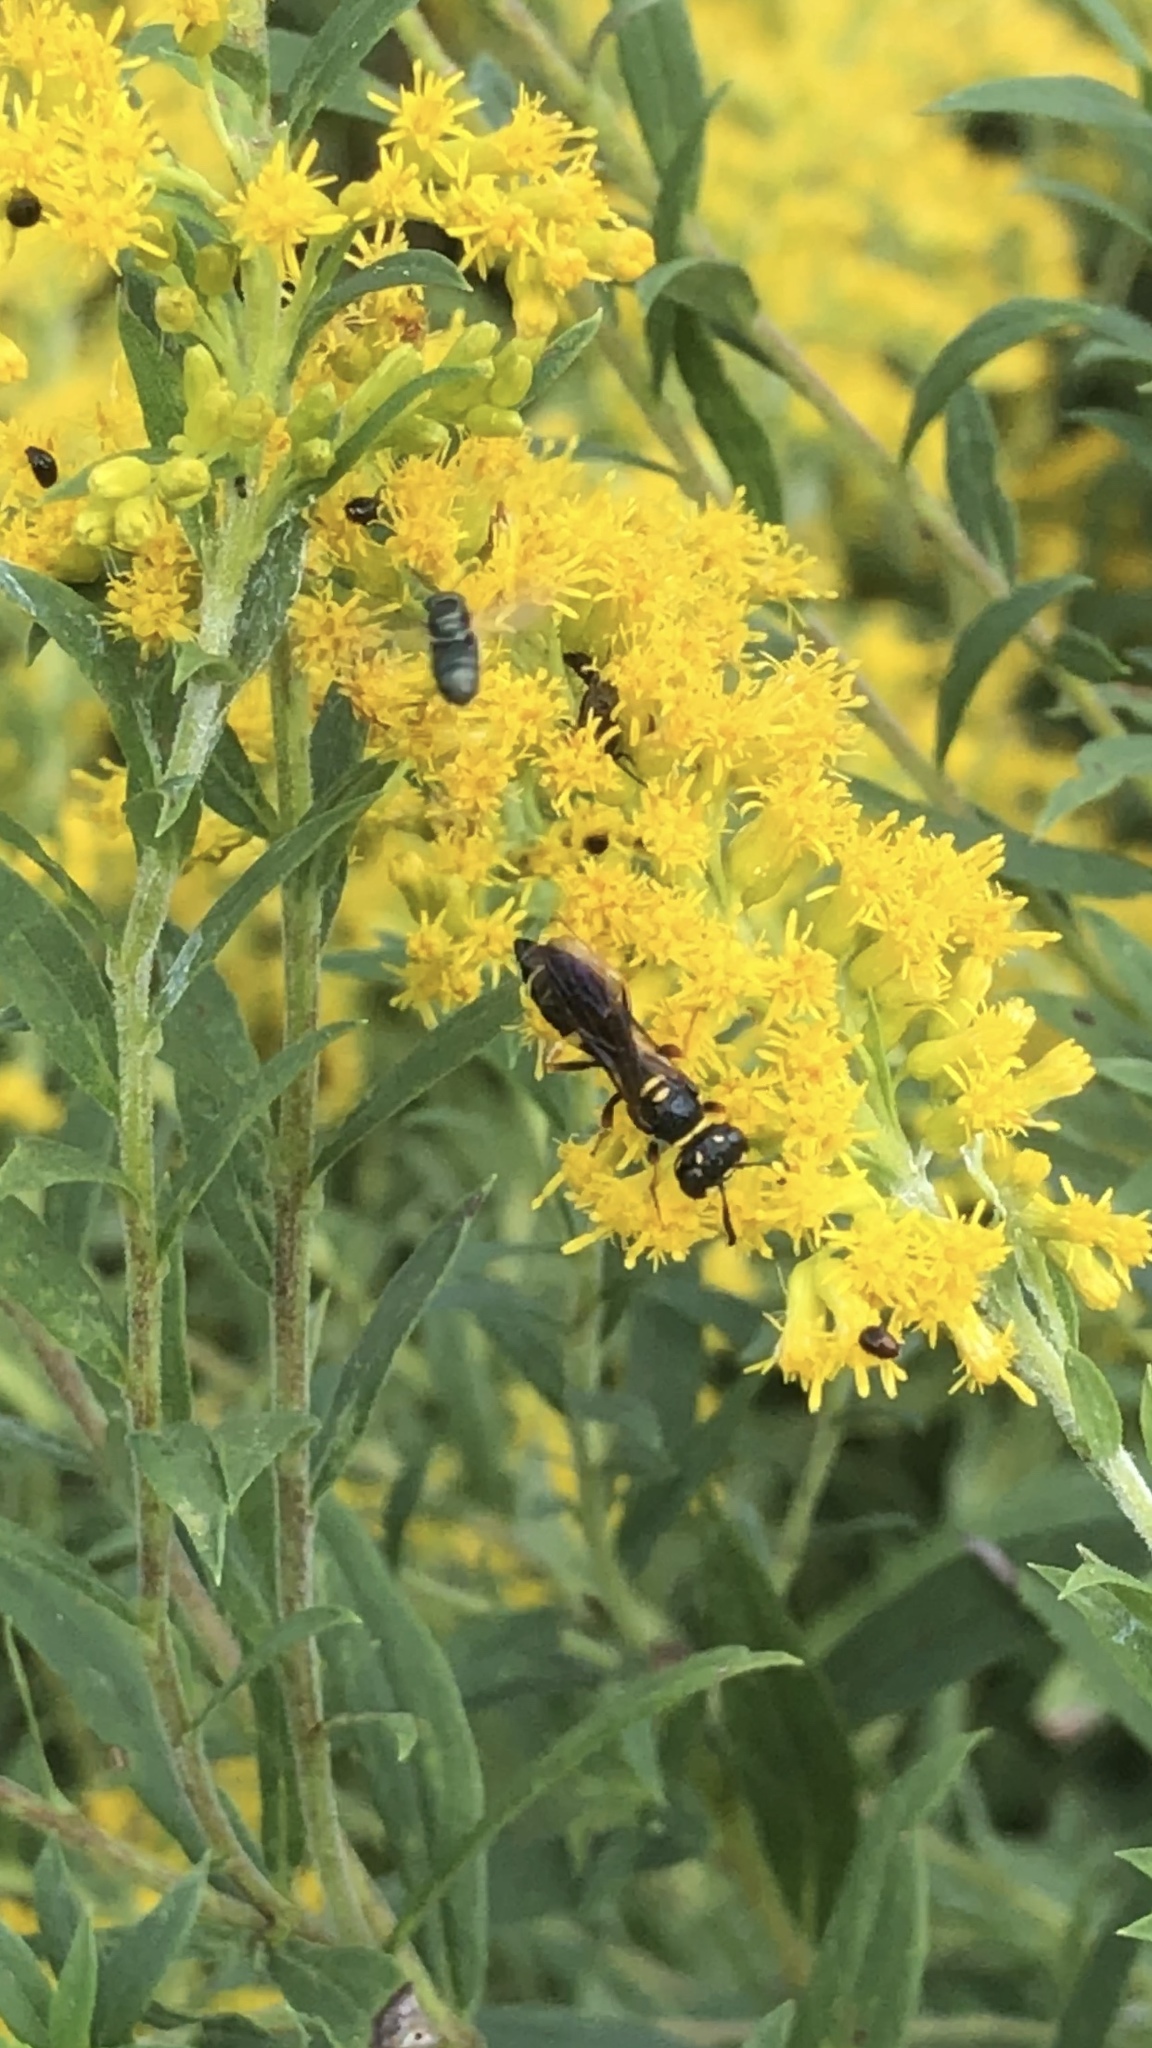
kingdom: Animalia
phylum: Arthropoda
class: Insecta
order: Hymenoptera
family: Crabronidae
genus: Philanthus
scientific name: Philanthus gibbosus
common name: Humped beewolf
